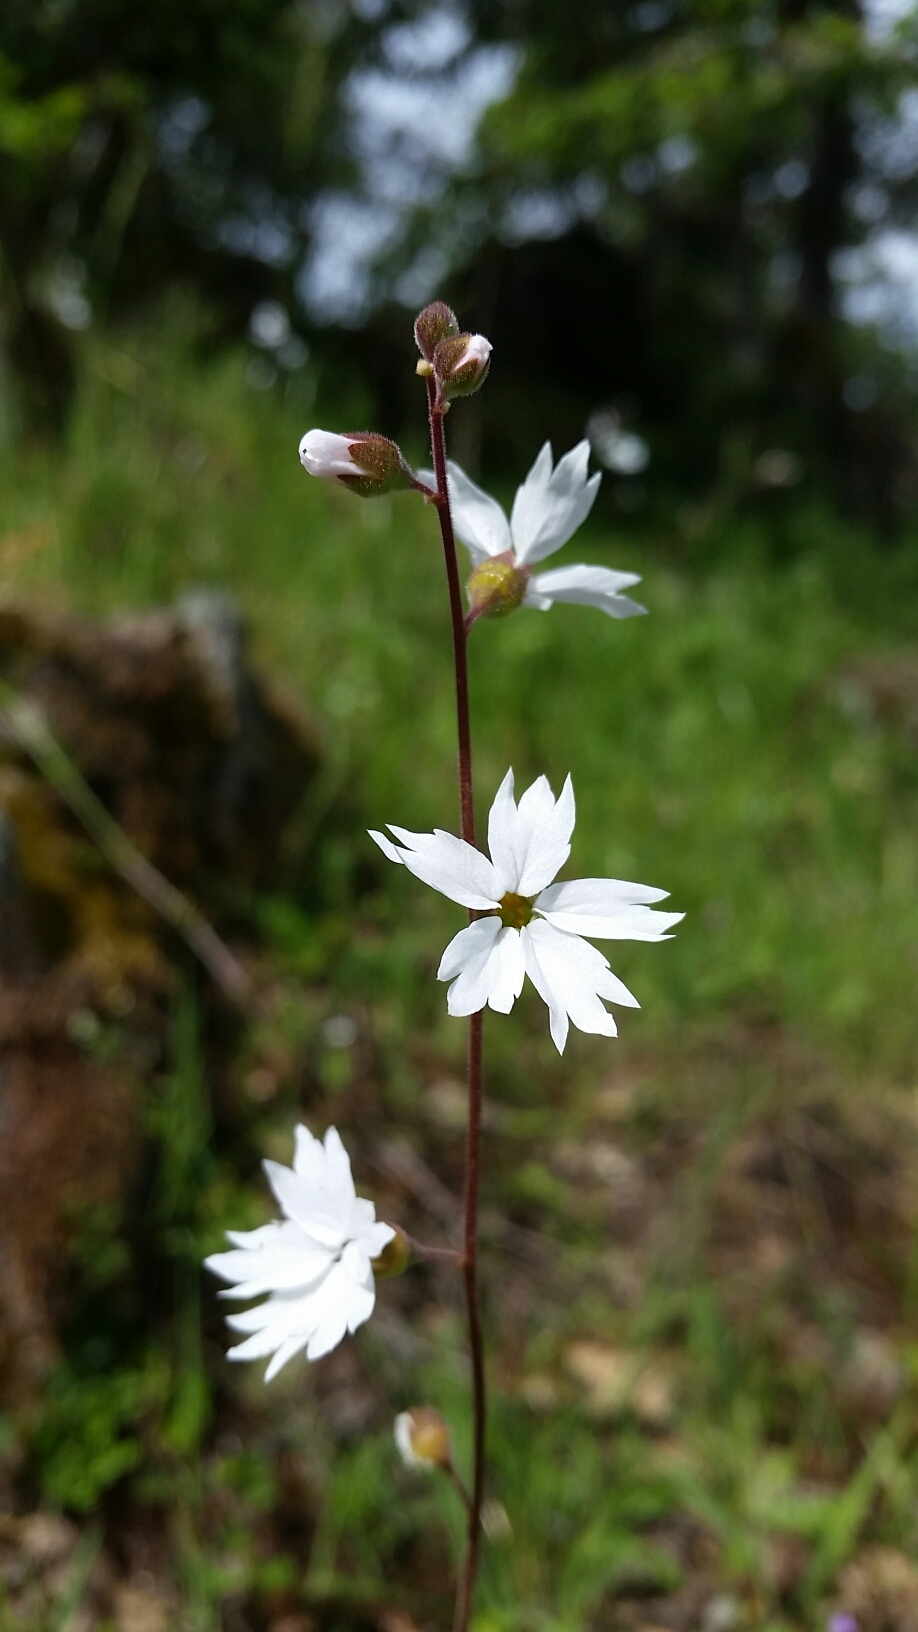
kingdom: Plantae
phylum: Tracheophyta
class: Magnoliopsida
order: Saxifragales
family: Saxifragaceae
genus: Lithophragma
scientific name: Lithophragma affine
